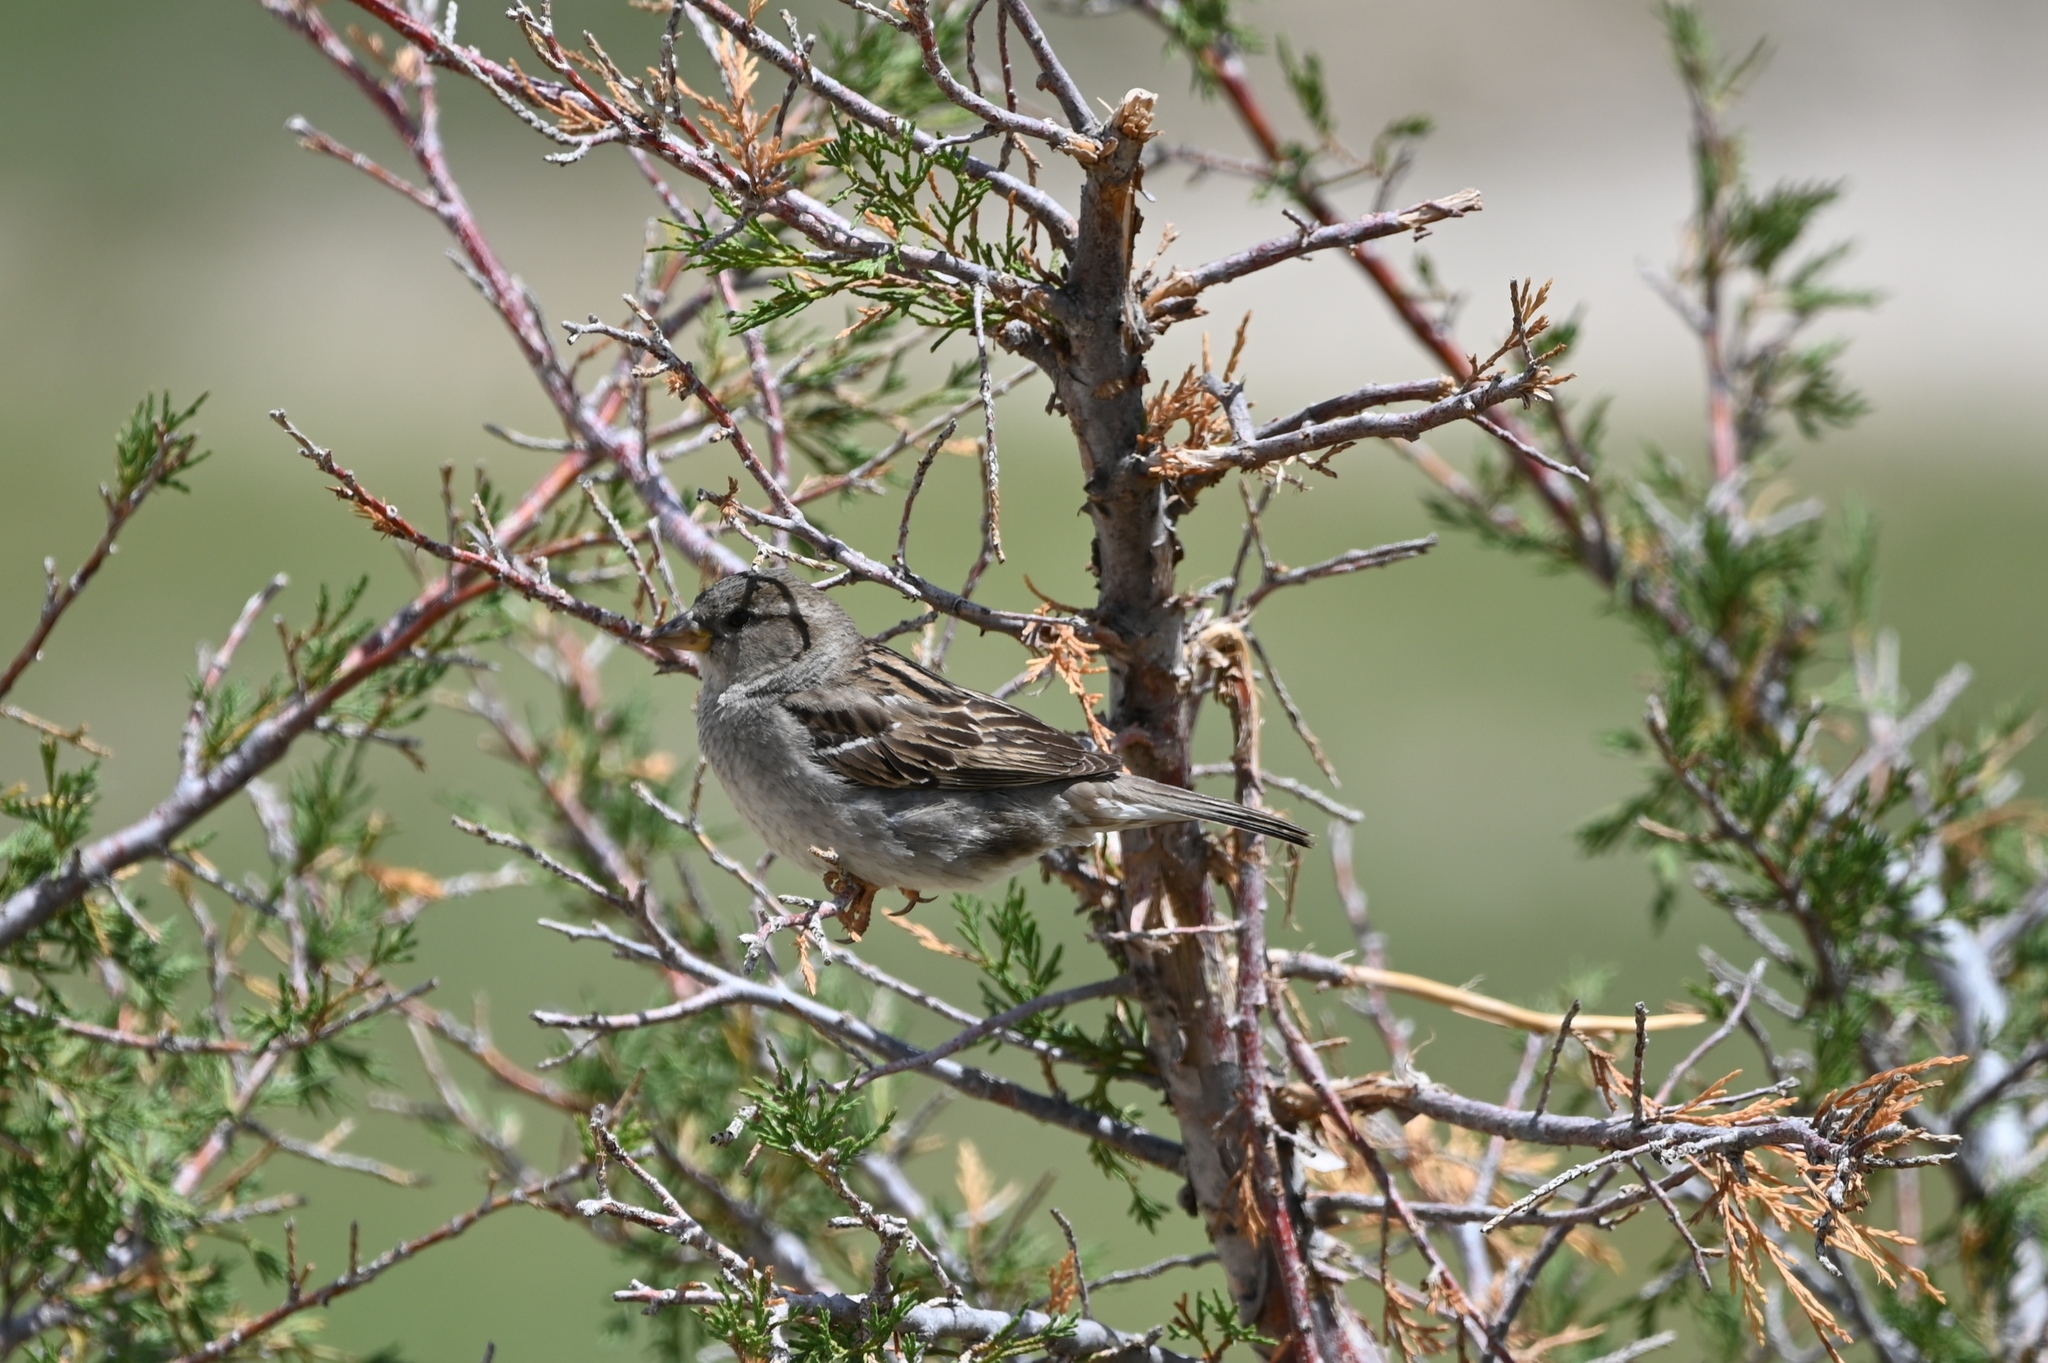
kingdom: Animalia
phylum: Chordata
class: Aves
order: Passeriformes
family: Passeridae
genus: Passer
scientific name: Passer domesticus
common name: House sparrow
